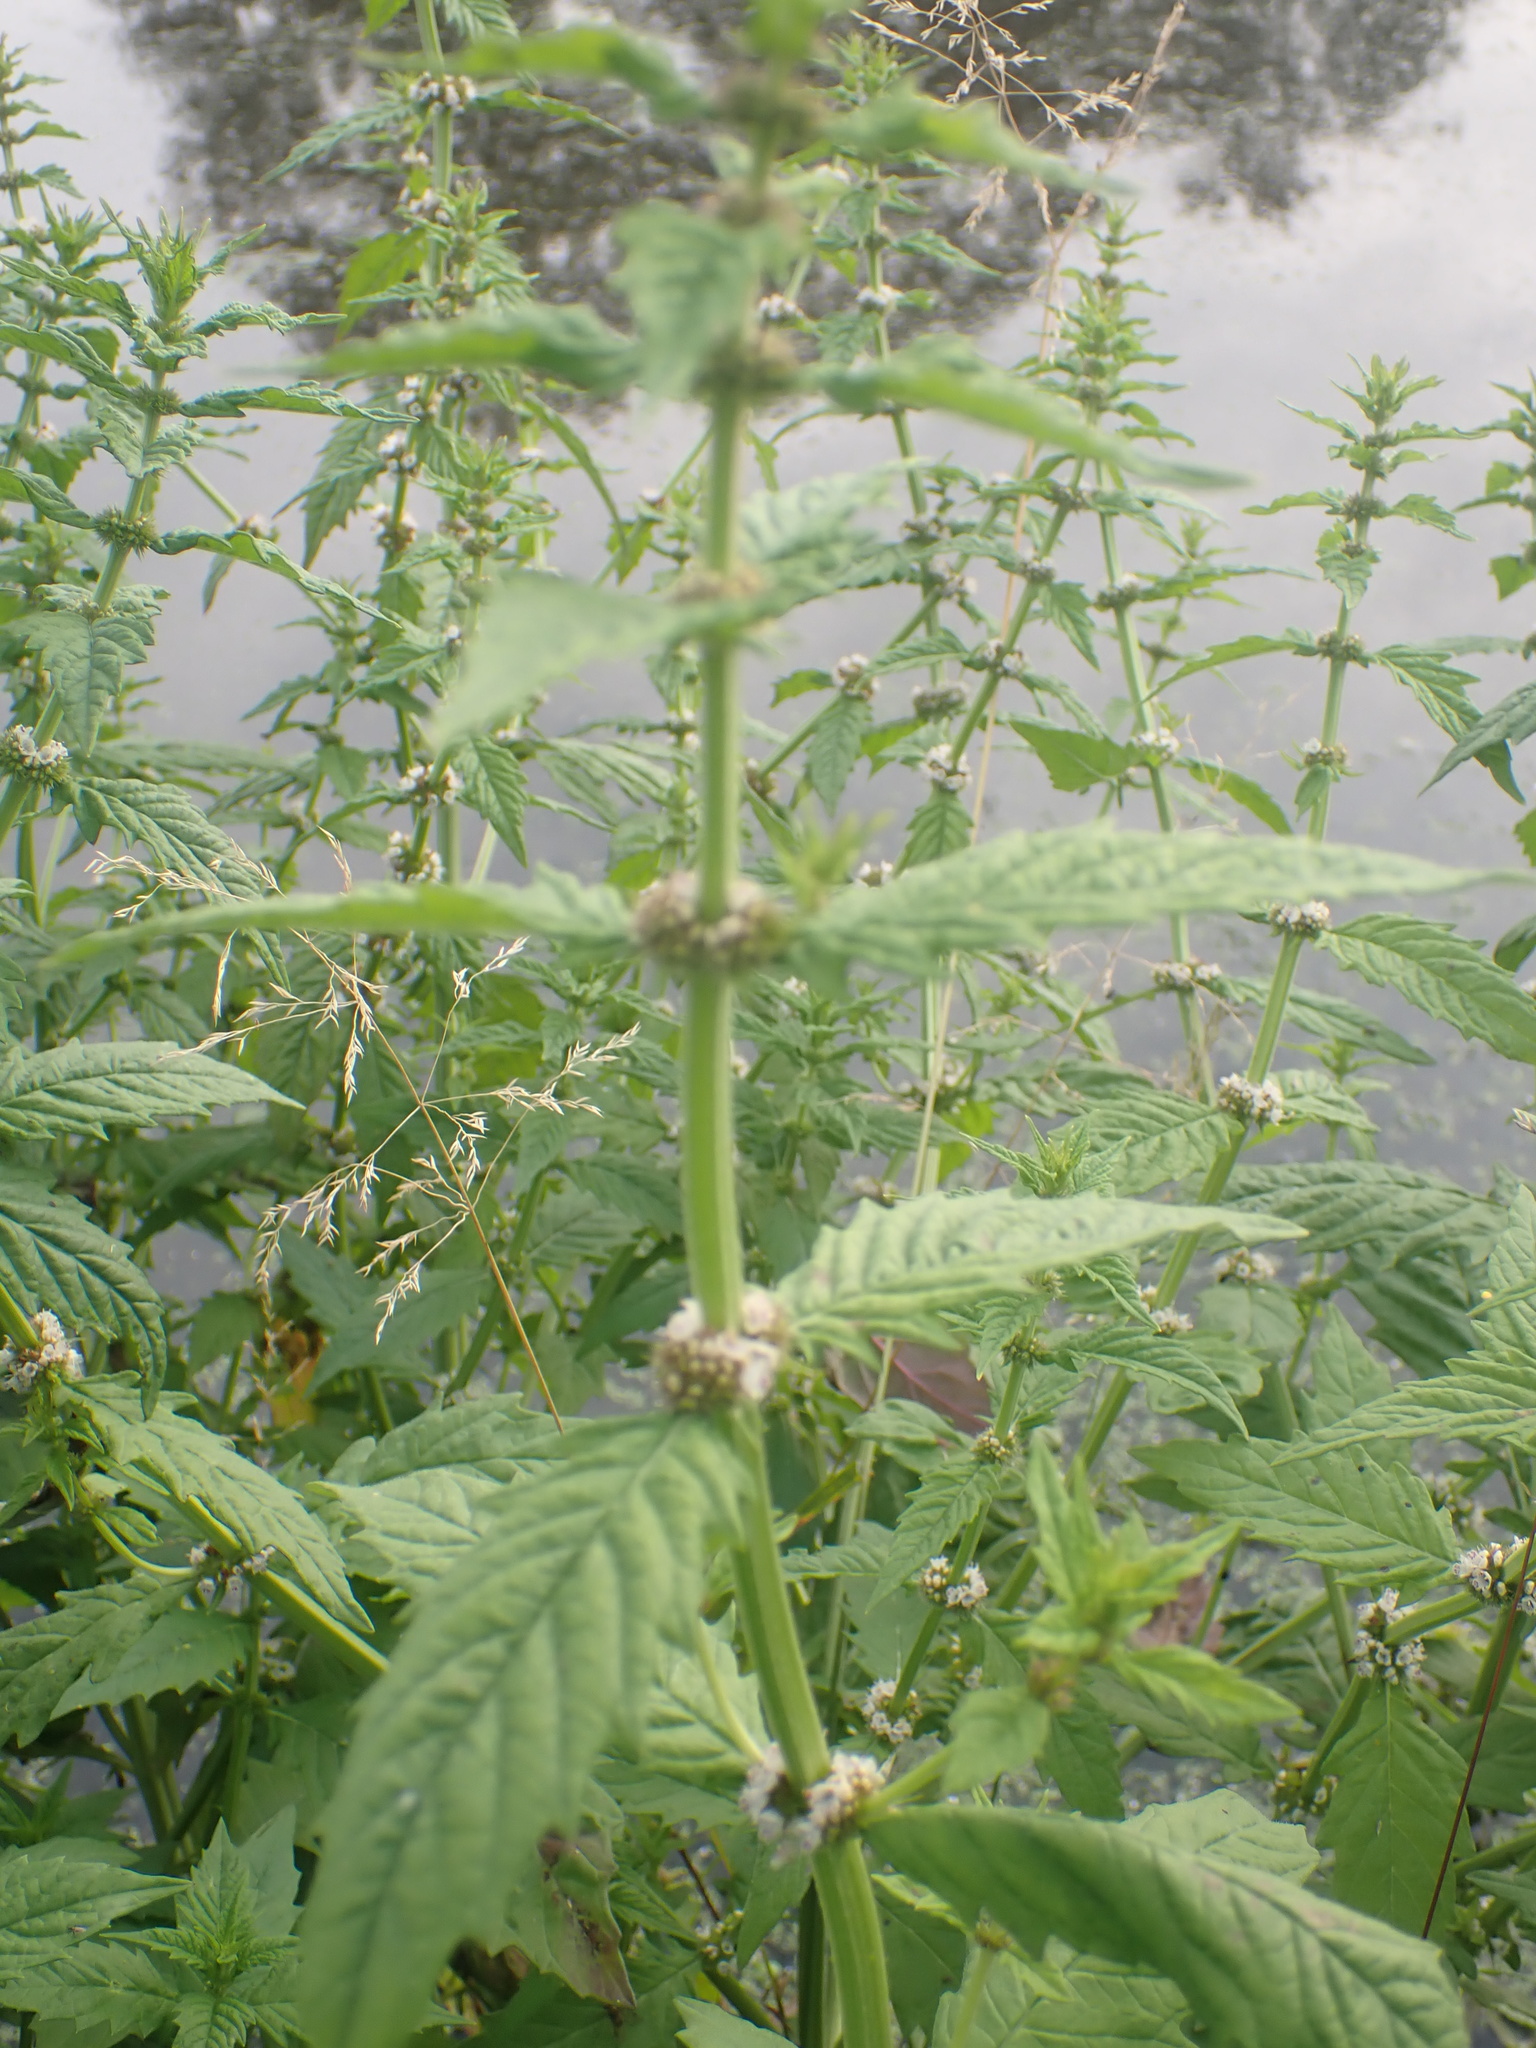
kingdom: Plantae
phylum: Tracheophyta
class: Magnoliopsida
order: Lamiales
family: Lamiaceae
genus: Lycopus
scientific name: Lycopus europaeus
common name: European bugleweed
